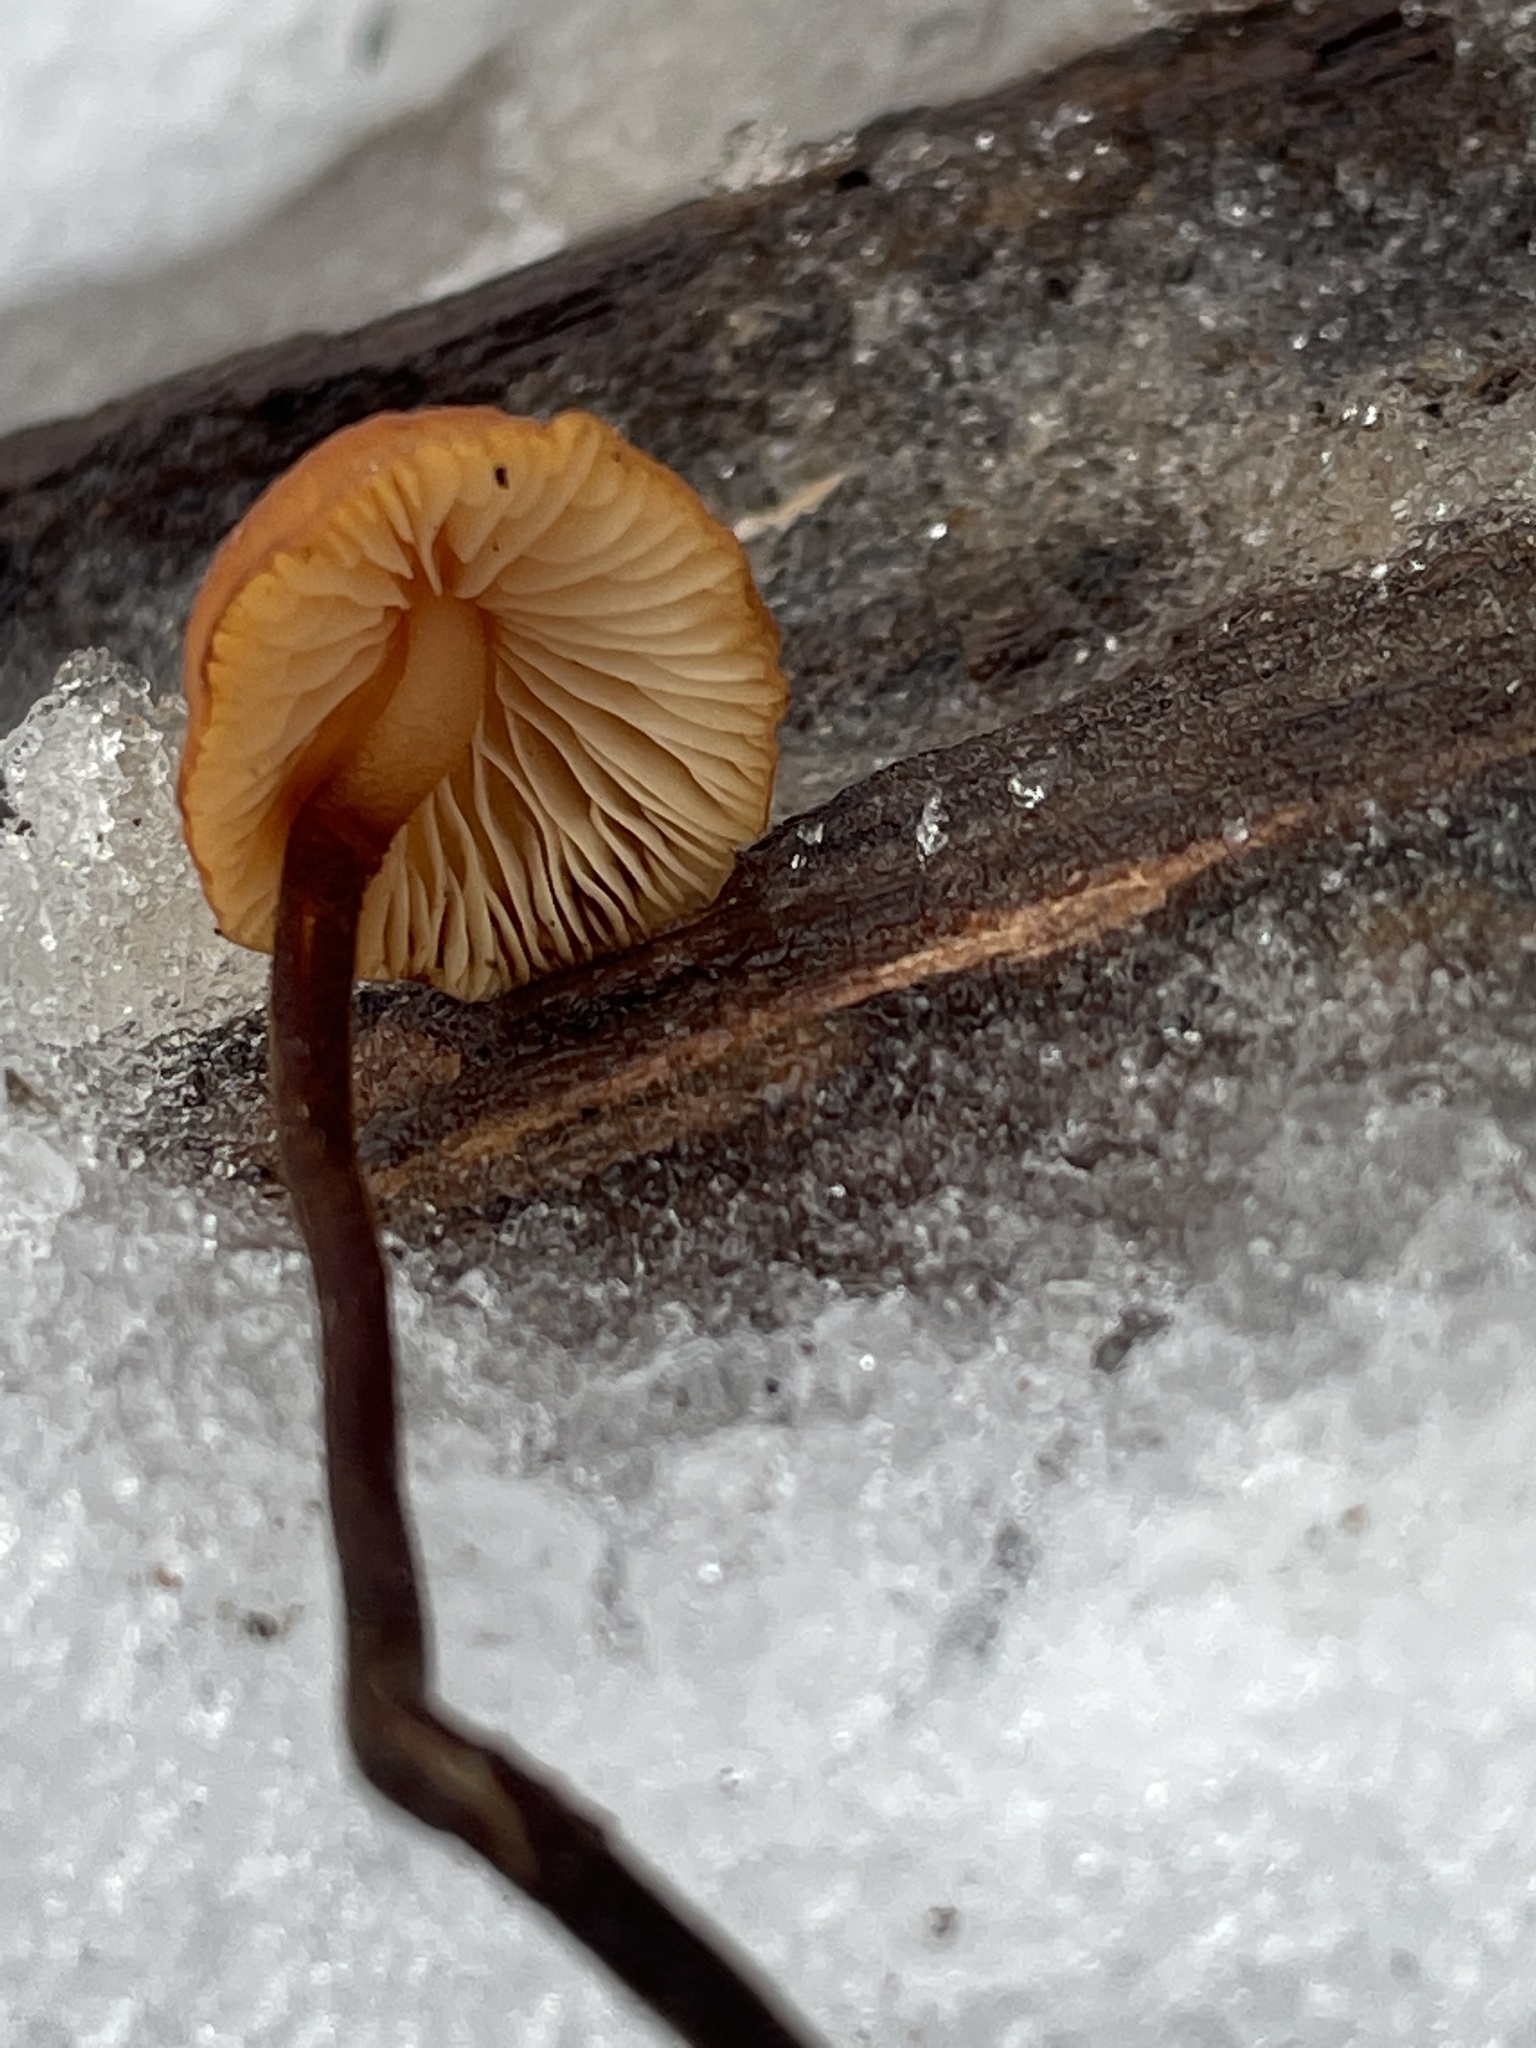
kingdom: Fungi
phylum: Basidiomycota
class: Agaricomycetes
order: Agaricales
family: Physalacriaceae
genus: Rhizomarasmius
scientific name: Rhizomarasmius pyrrhocephalus
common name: Hairy long stem marasmius
